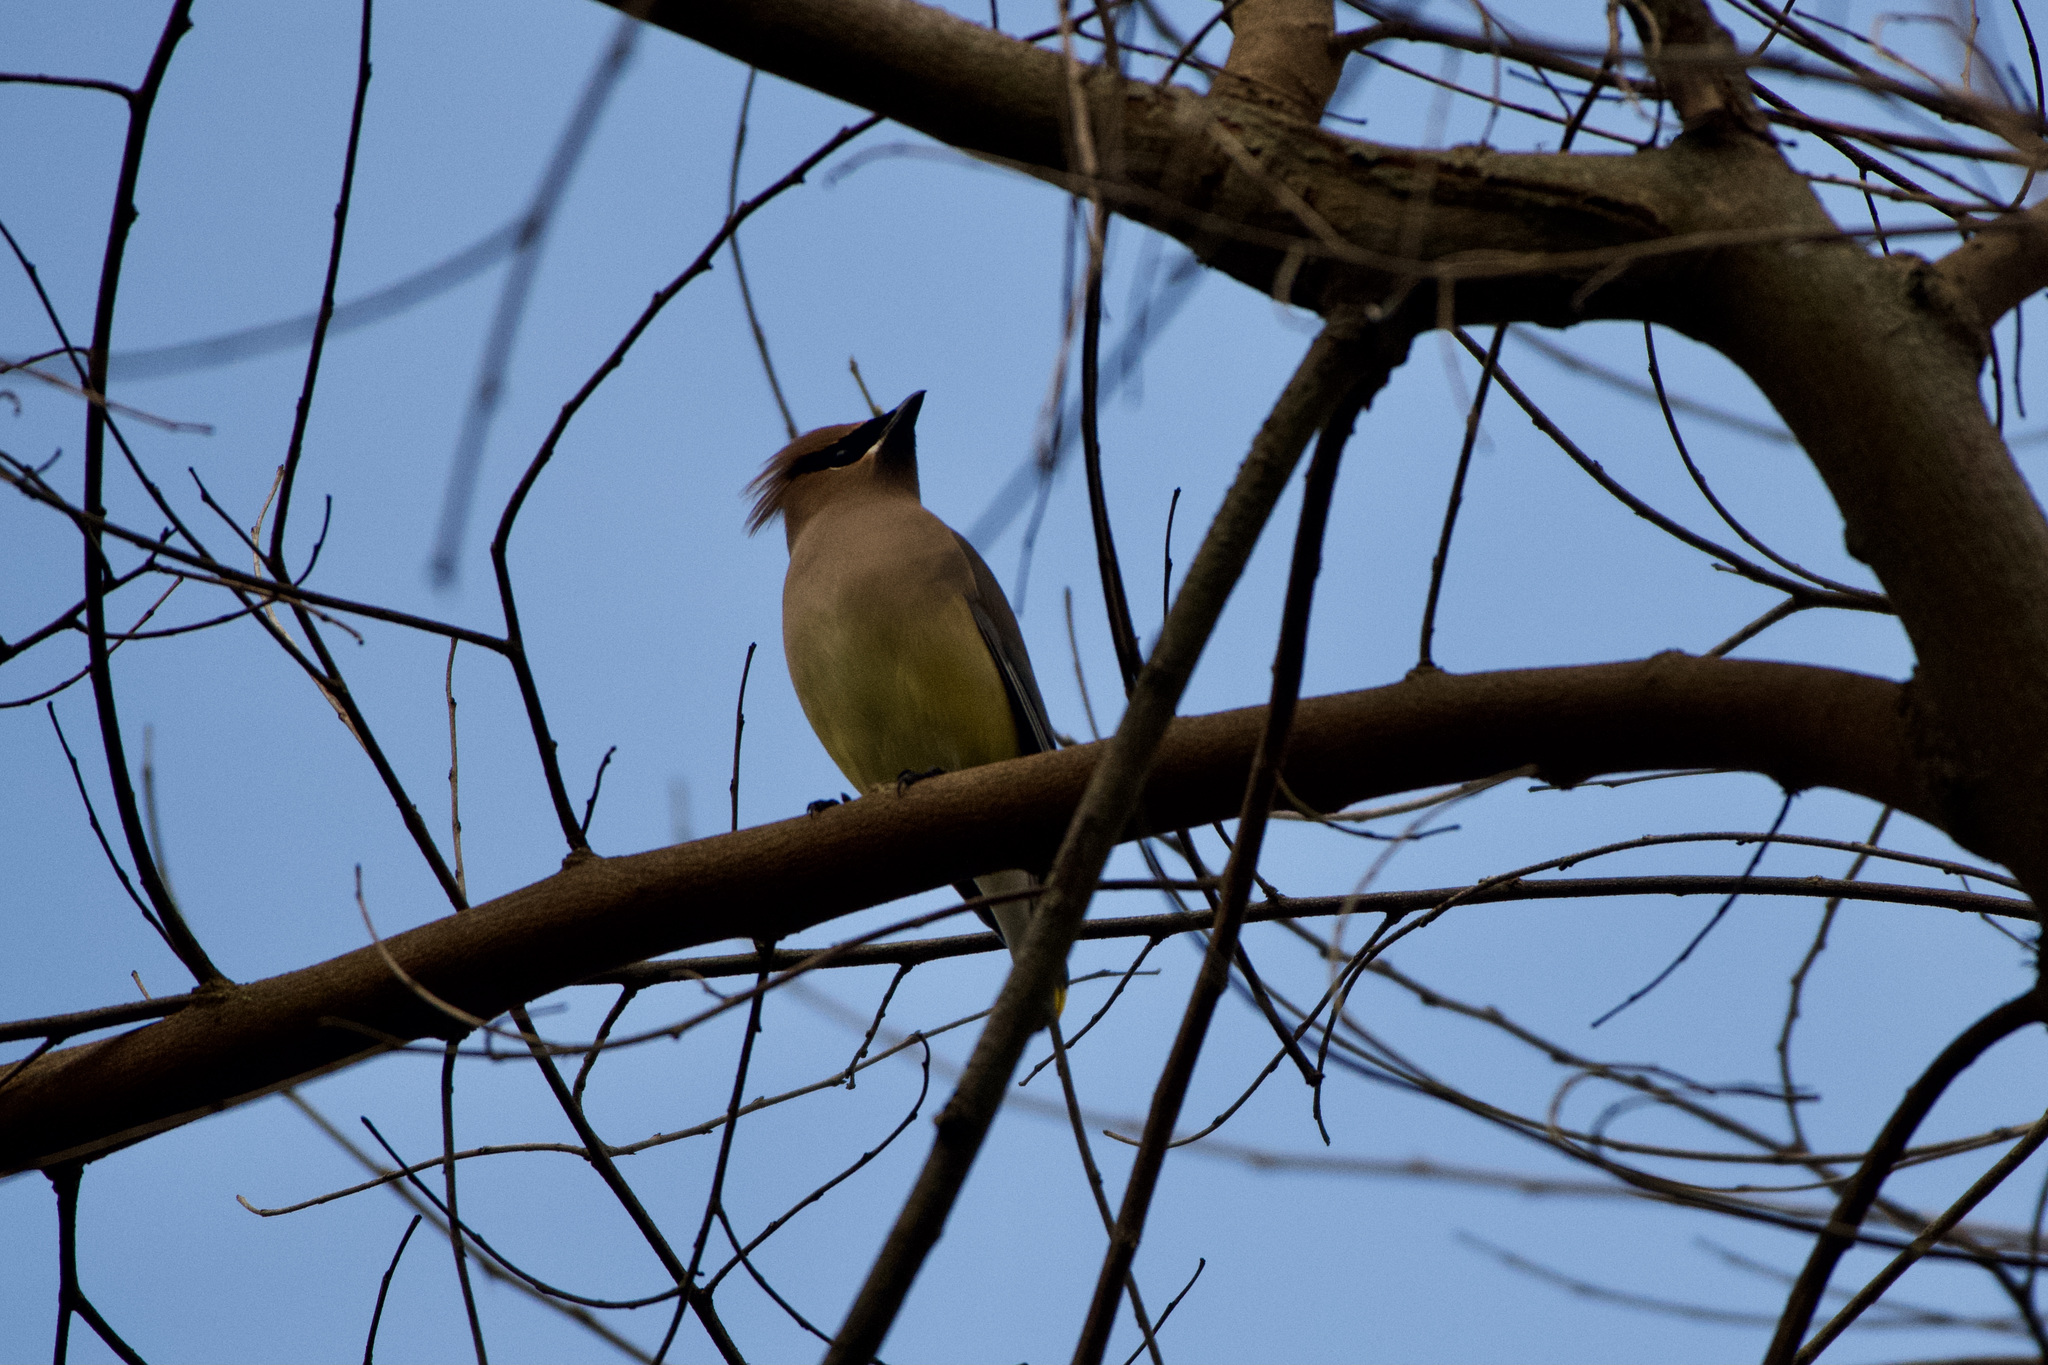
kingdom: Animalia
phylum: Chordata
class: Aves
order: Passeriformes
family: Bombycillidae
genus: Bombycilla
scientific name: Bombycilla cedrorum
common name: Cedar waxwing
